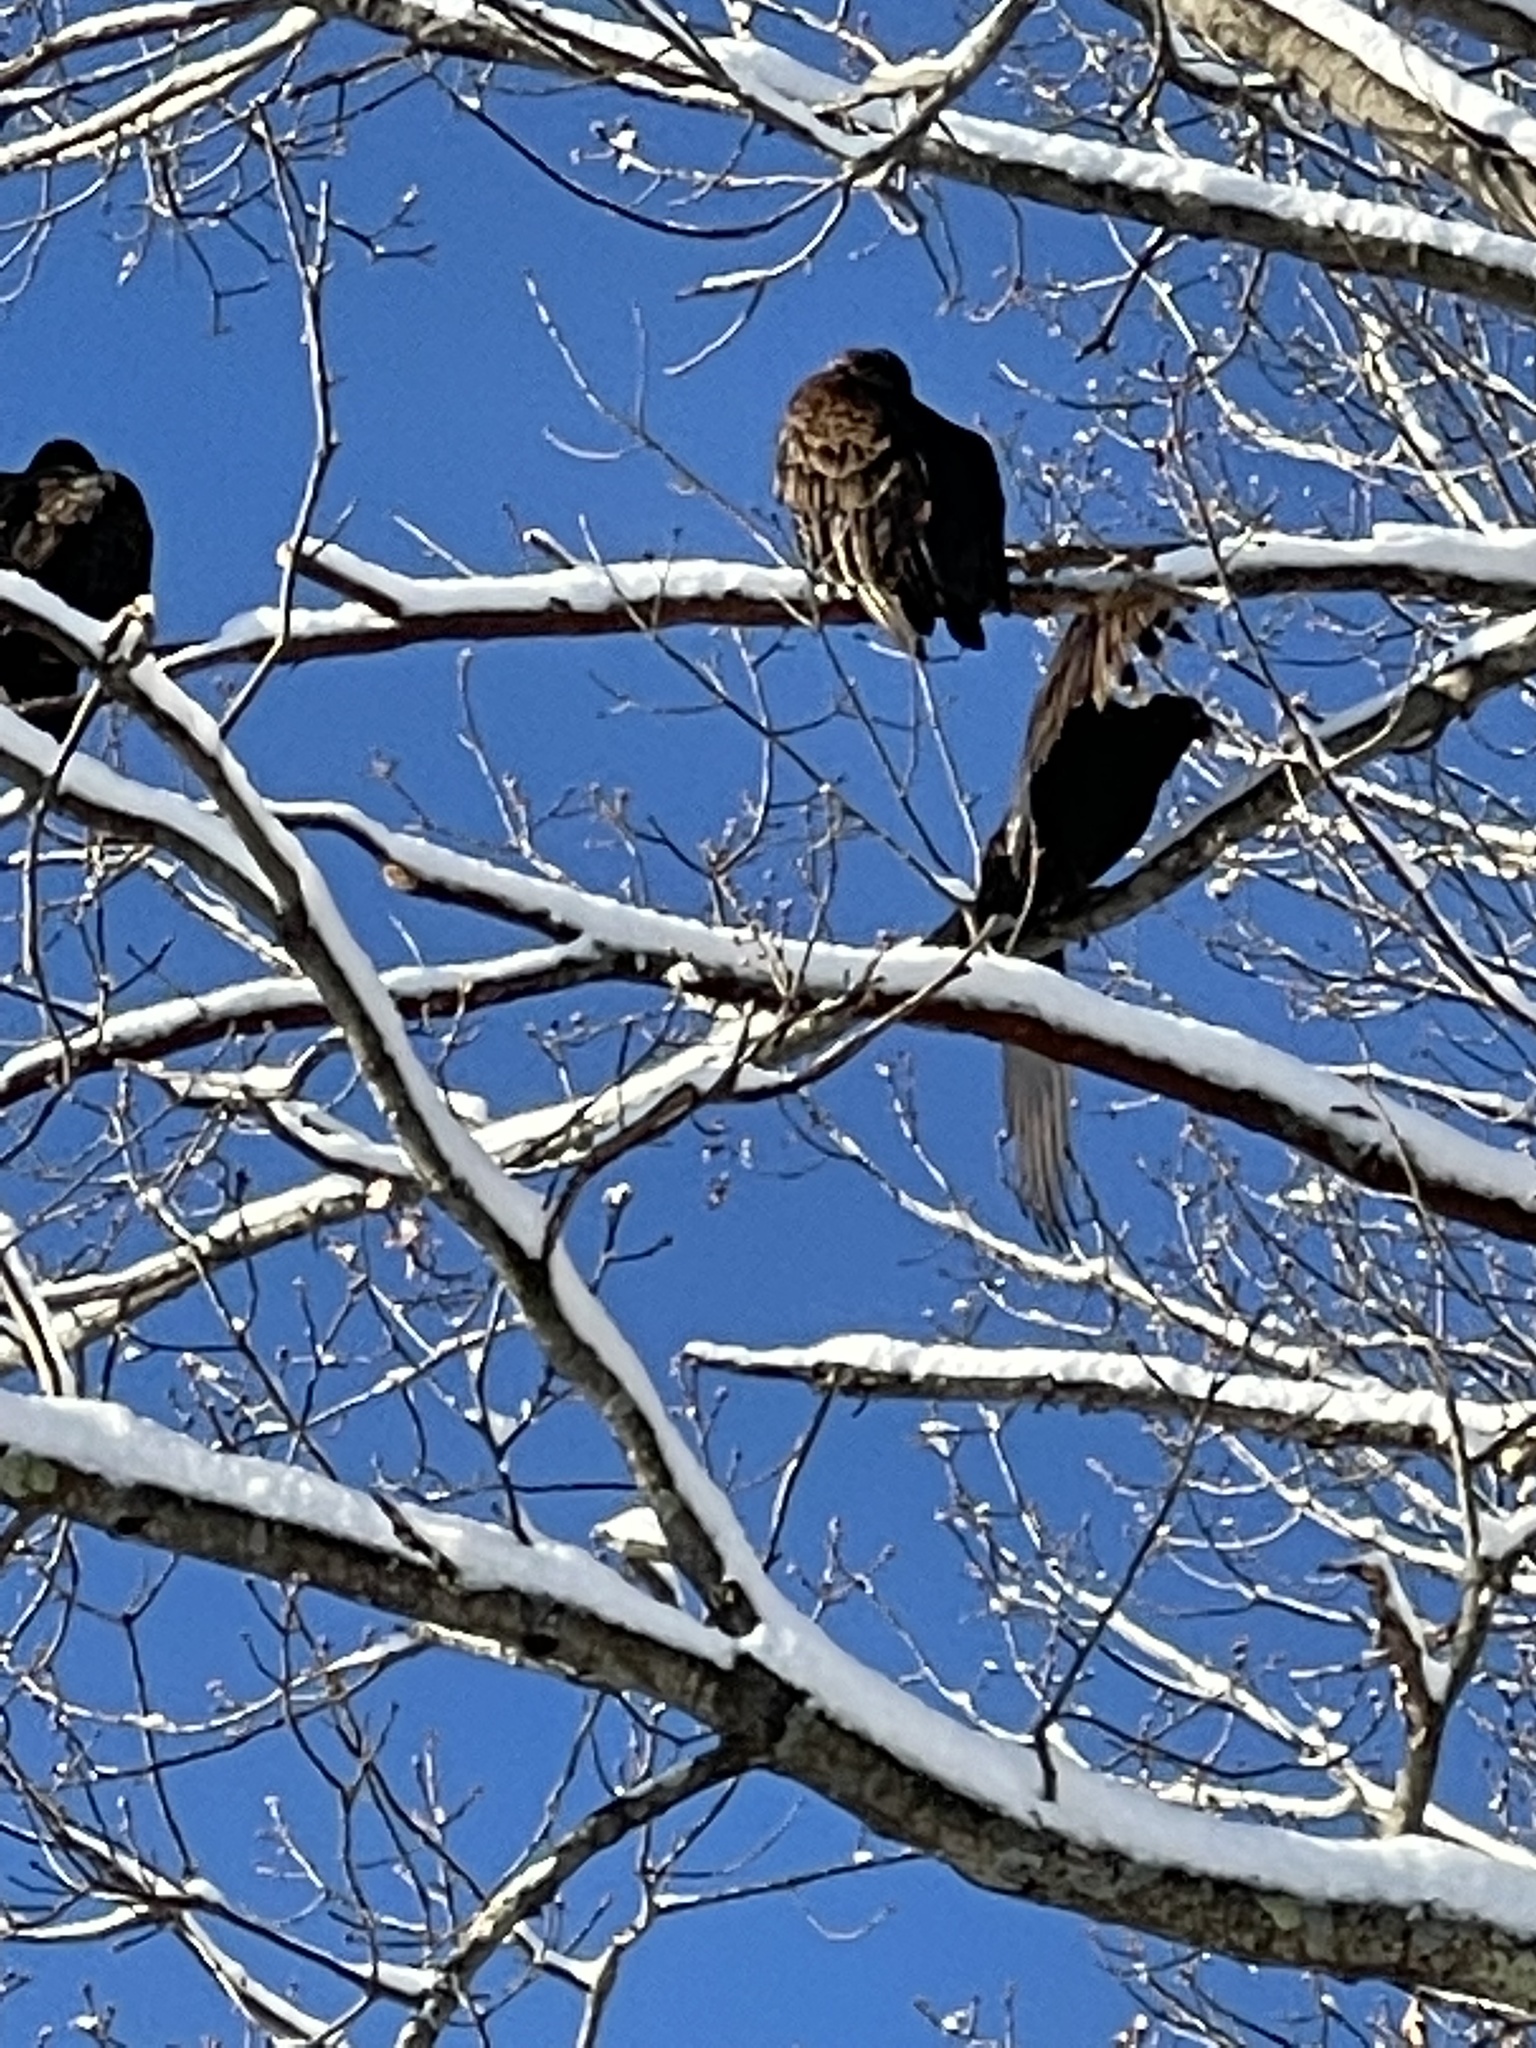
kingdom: Animalia
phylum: Chordata
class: Aves
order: Accipitriformes
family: Cathartidae
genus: Cathartes
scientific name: Cathartes aura
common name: Turkey vulture
